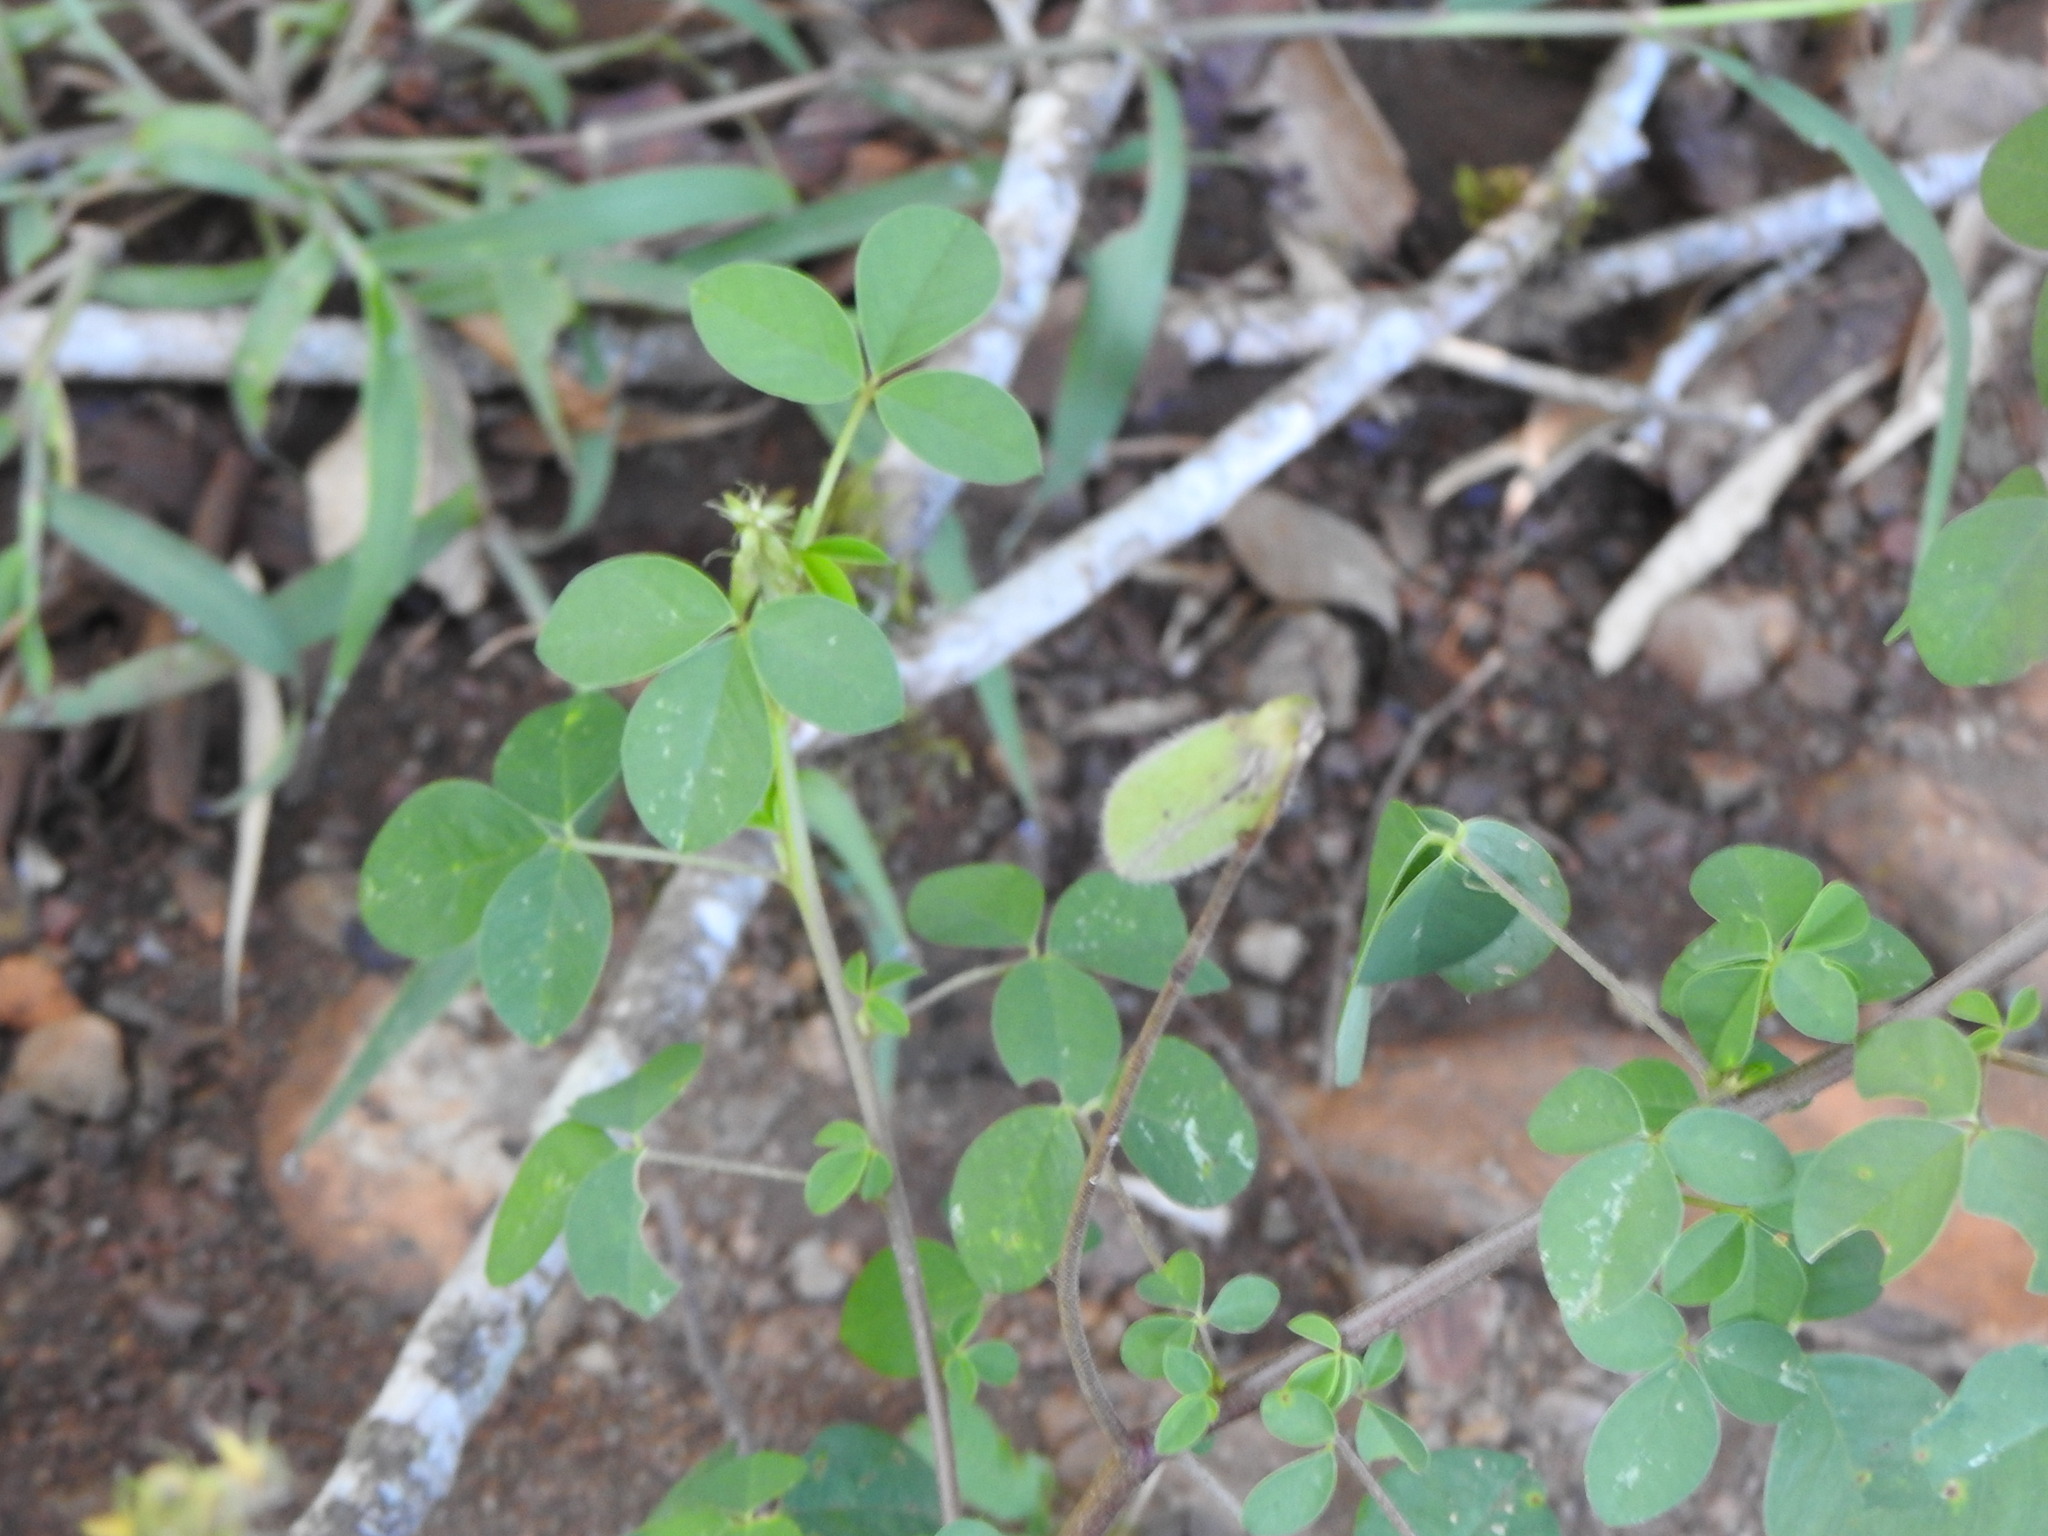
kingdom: Plantae
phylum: Tracheophyta
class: Magnoliopsida
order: Fabales
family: Fabaceae
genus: Crotalaria
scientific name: Crotalaria incana
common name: Shakeshake
